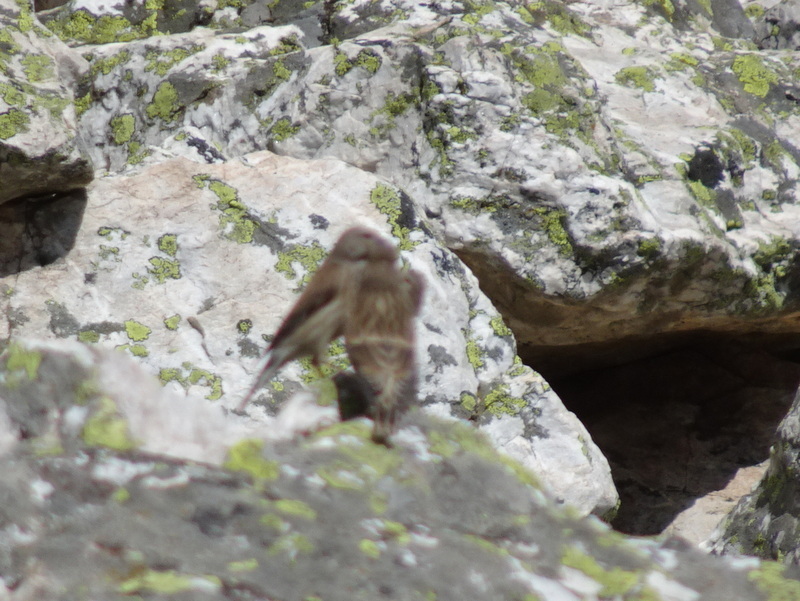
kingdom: Animalia
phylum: Chordata
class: Aves
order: Passeriformes
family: Fringillidae
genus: Linaria
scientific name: Linaria cannabina
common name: Common linnet
